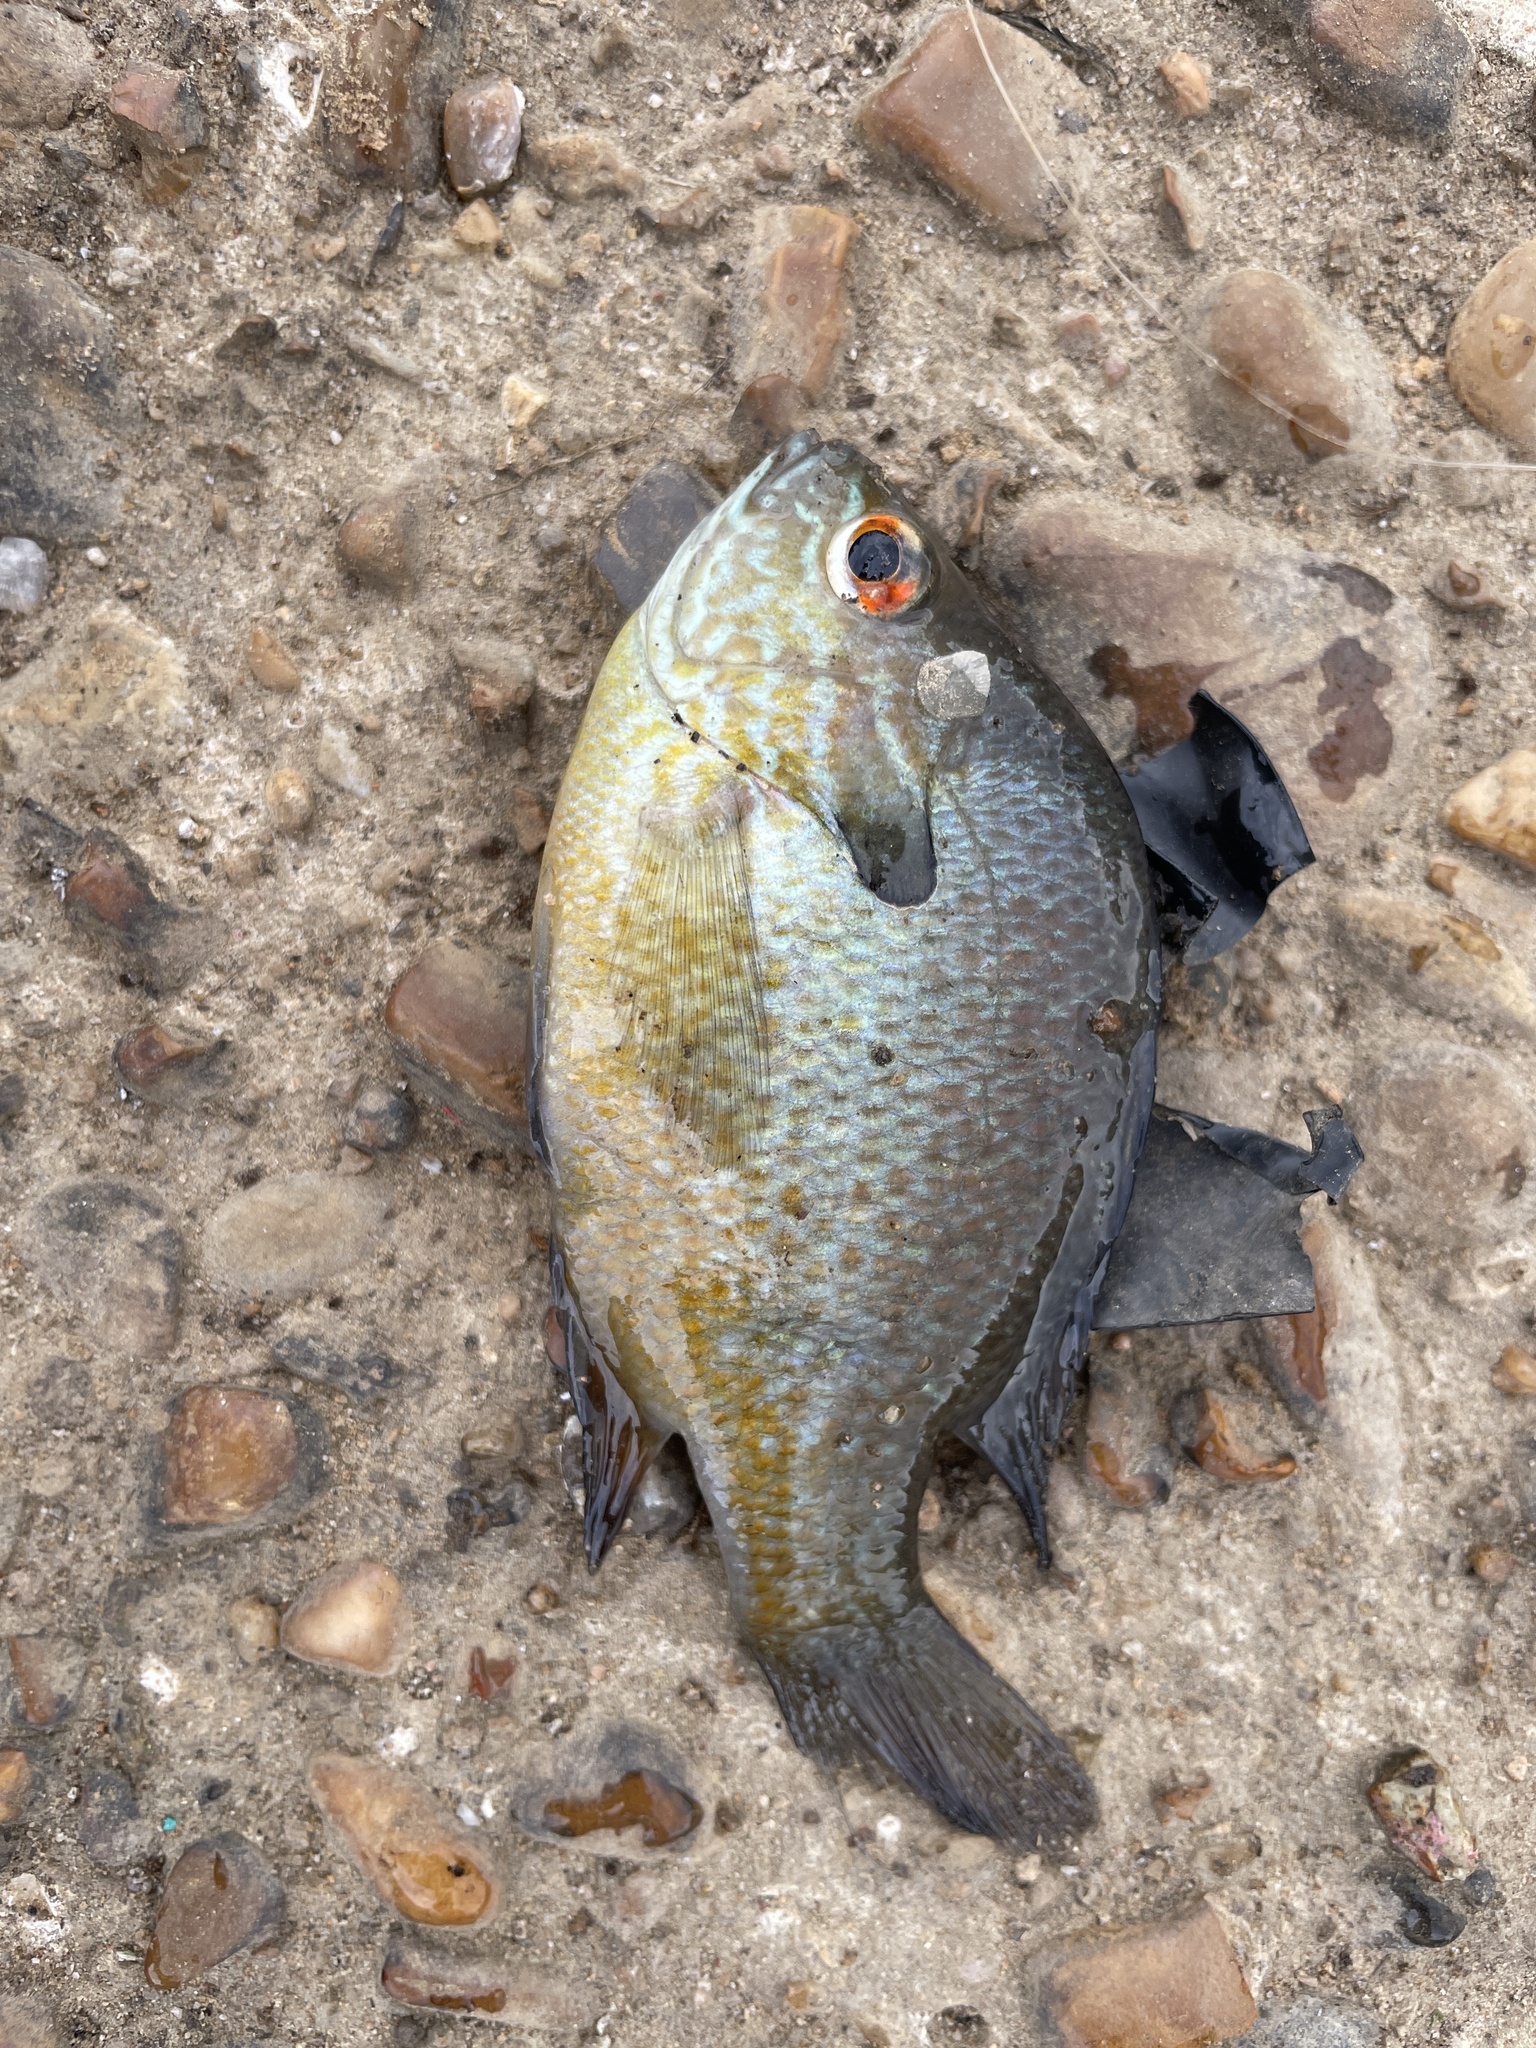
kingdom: Animalia
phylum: Chordata
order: Perciformes
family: Centrarchidae
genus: Lepomis
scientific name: Lepomis aquilensis
